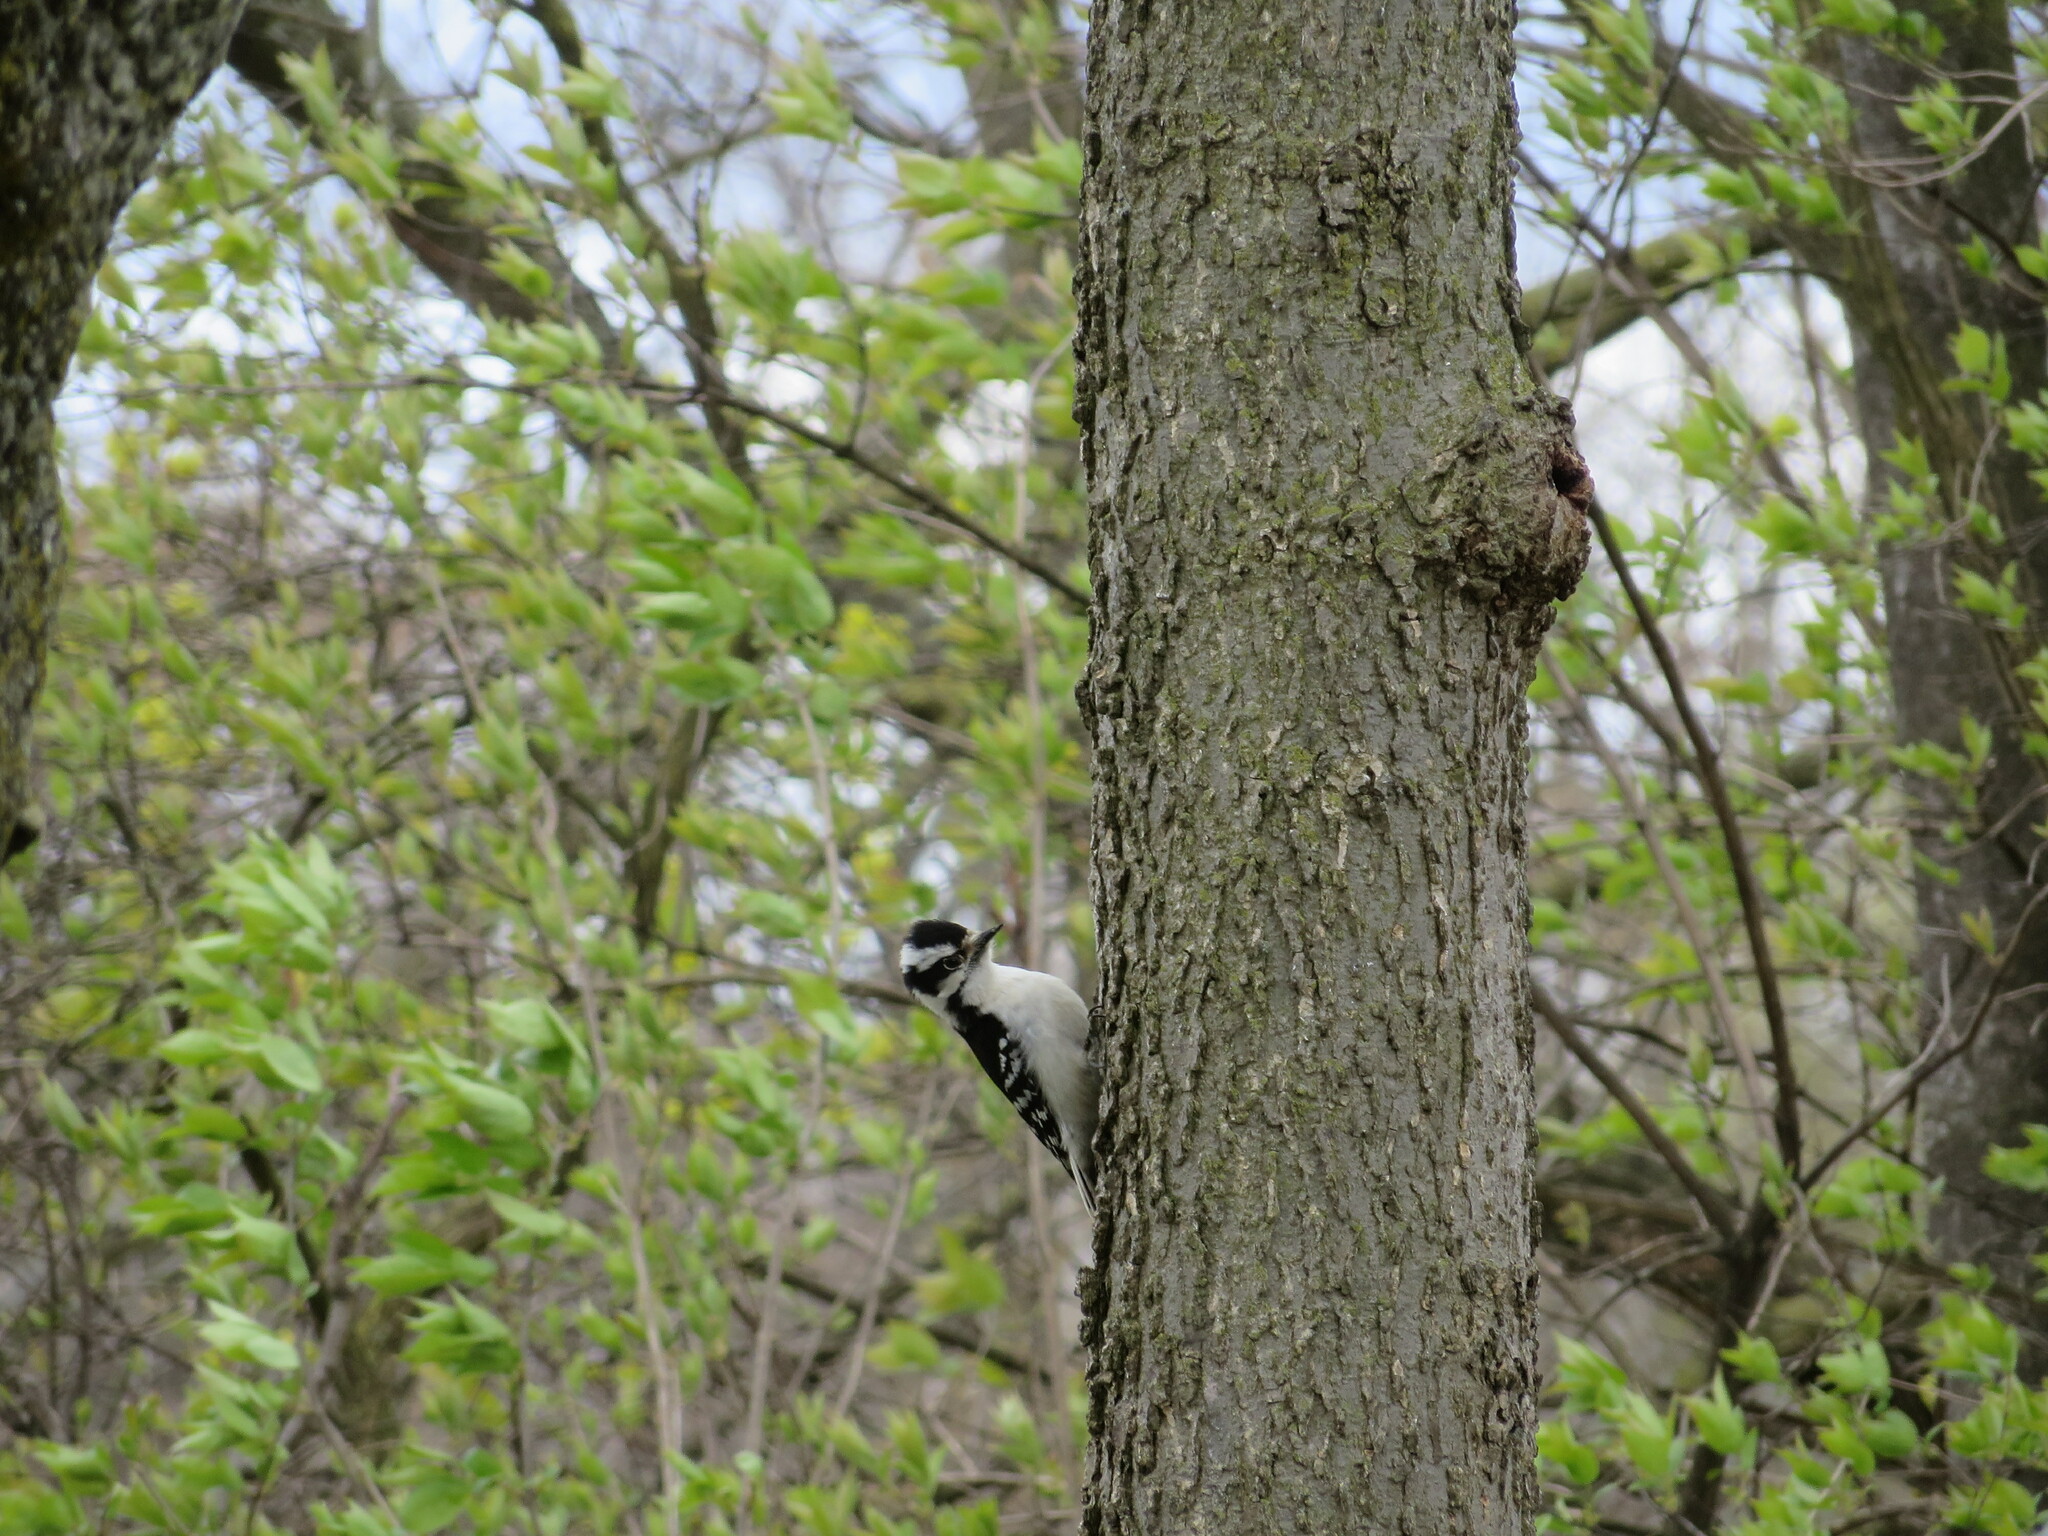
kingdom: Animalia
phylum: Chordata
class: Aves
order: Piciformes
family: Picidae
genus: Dryobates
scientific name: Dryobates pubescens
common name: Downy woodpecker
